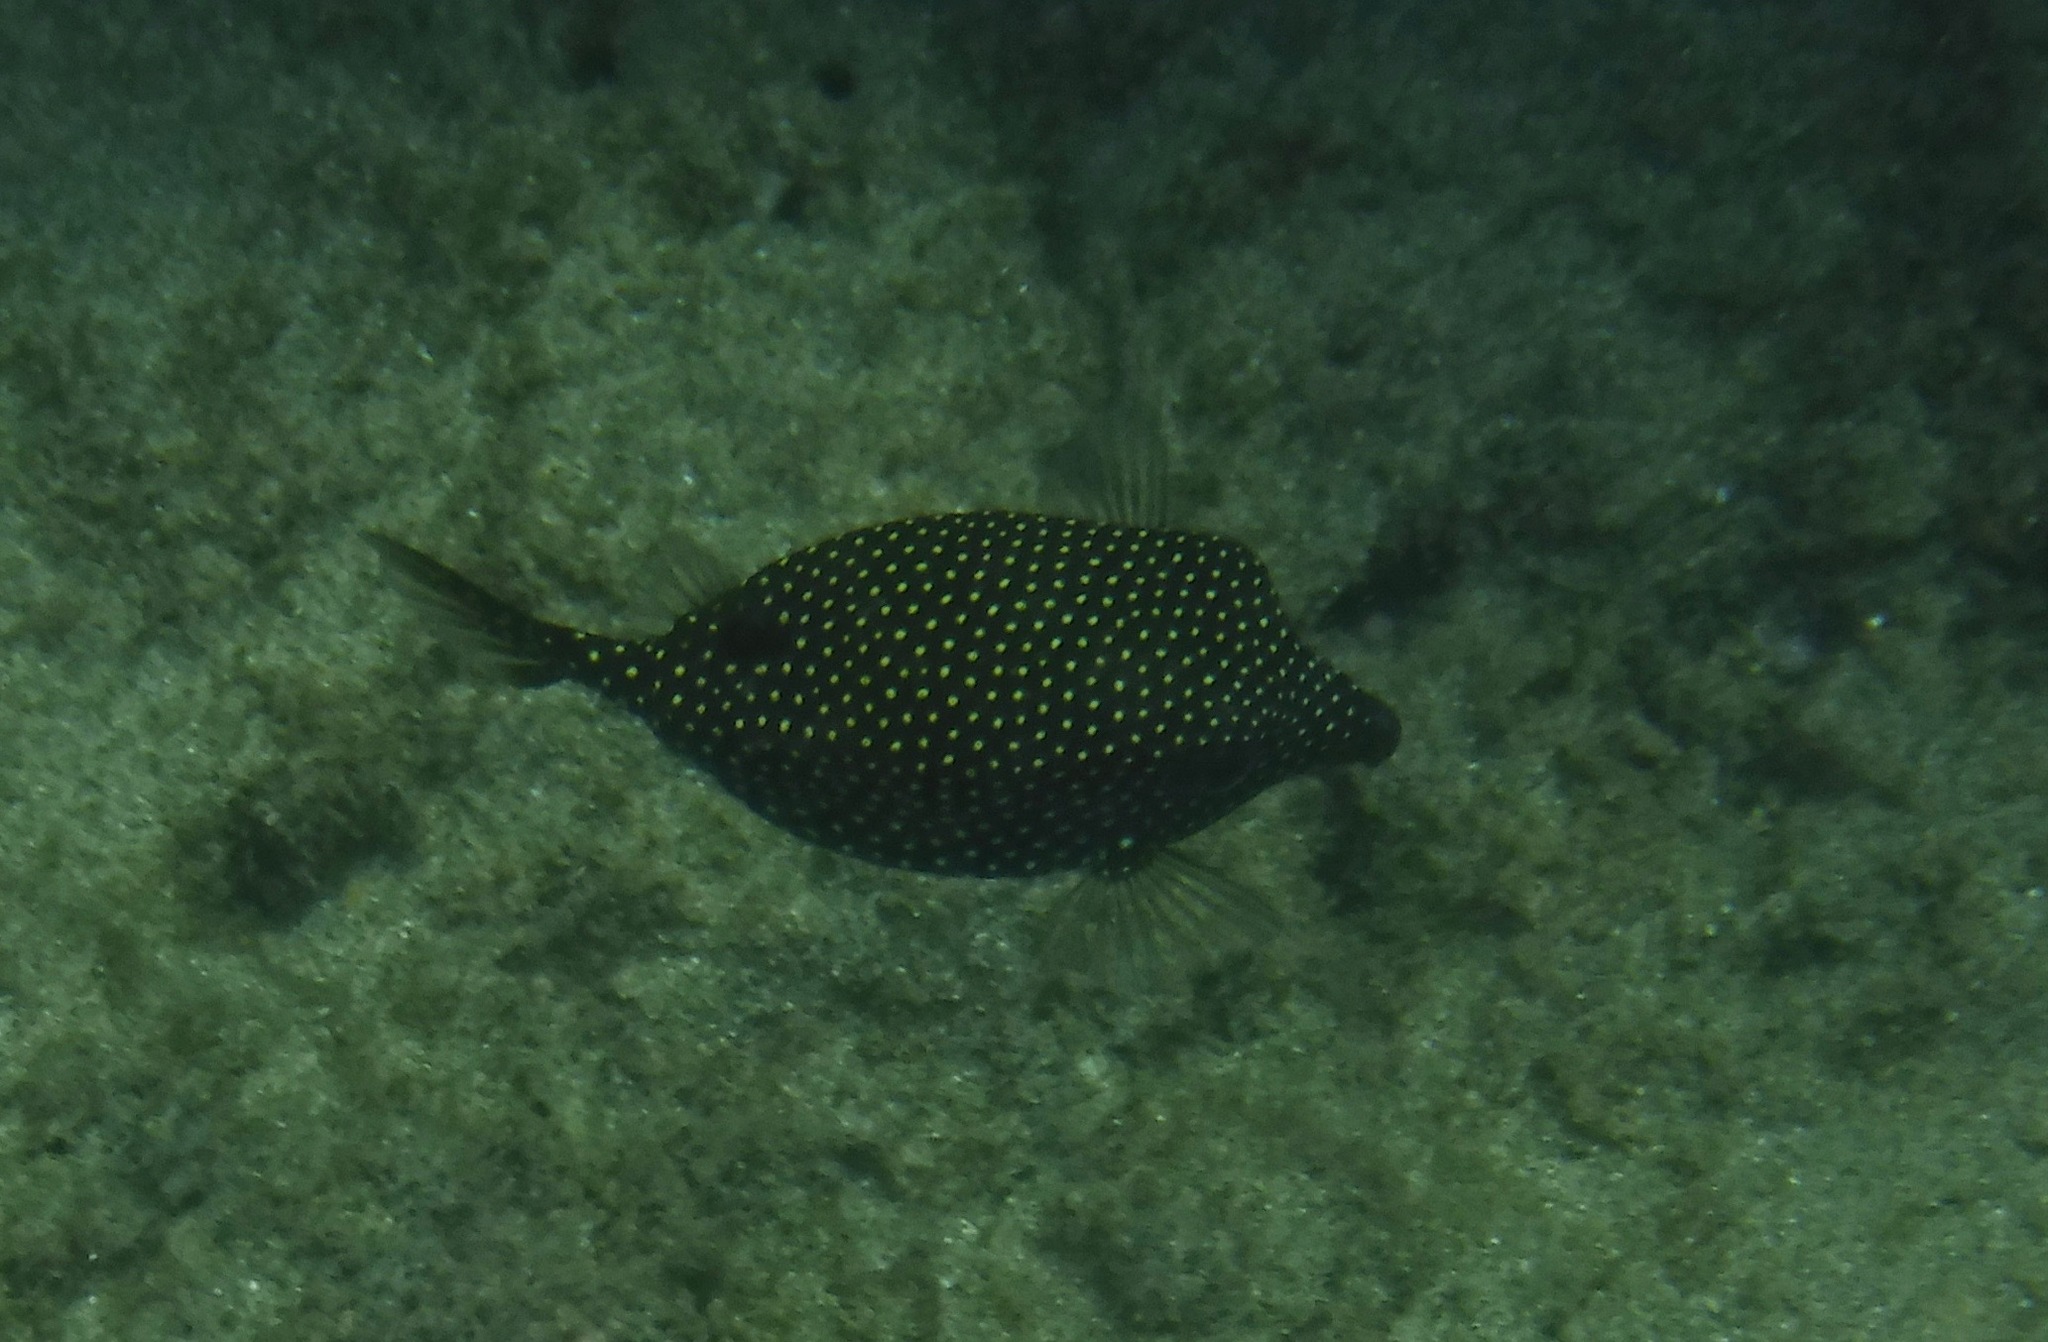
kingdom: Animalia
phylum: Chordata
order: Tetraodontiformes
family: Ostraciidae
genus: Ostracion
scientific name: Ostracion meleagris
